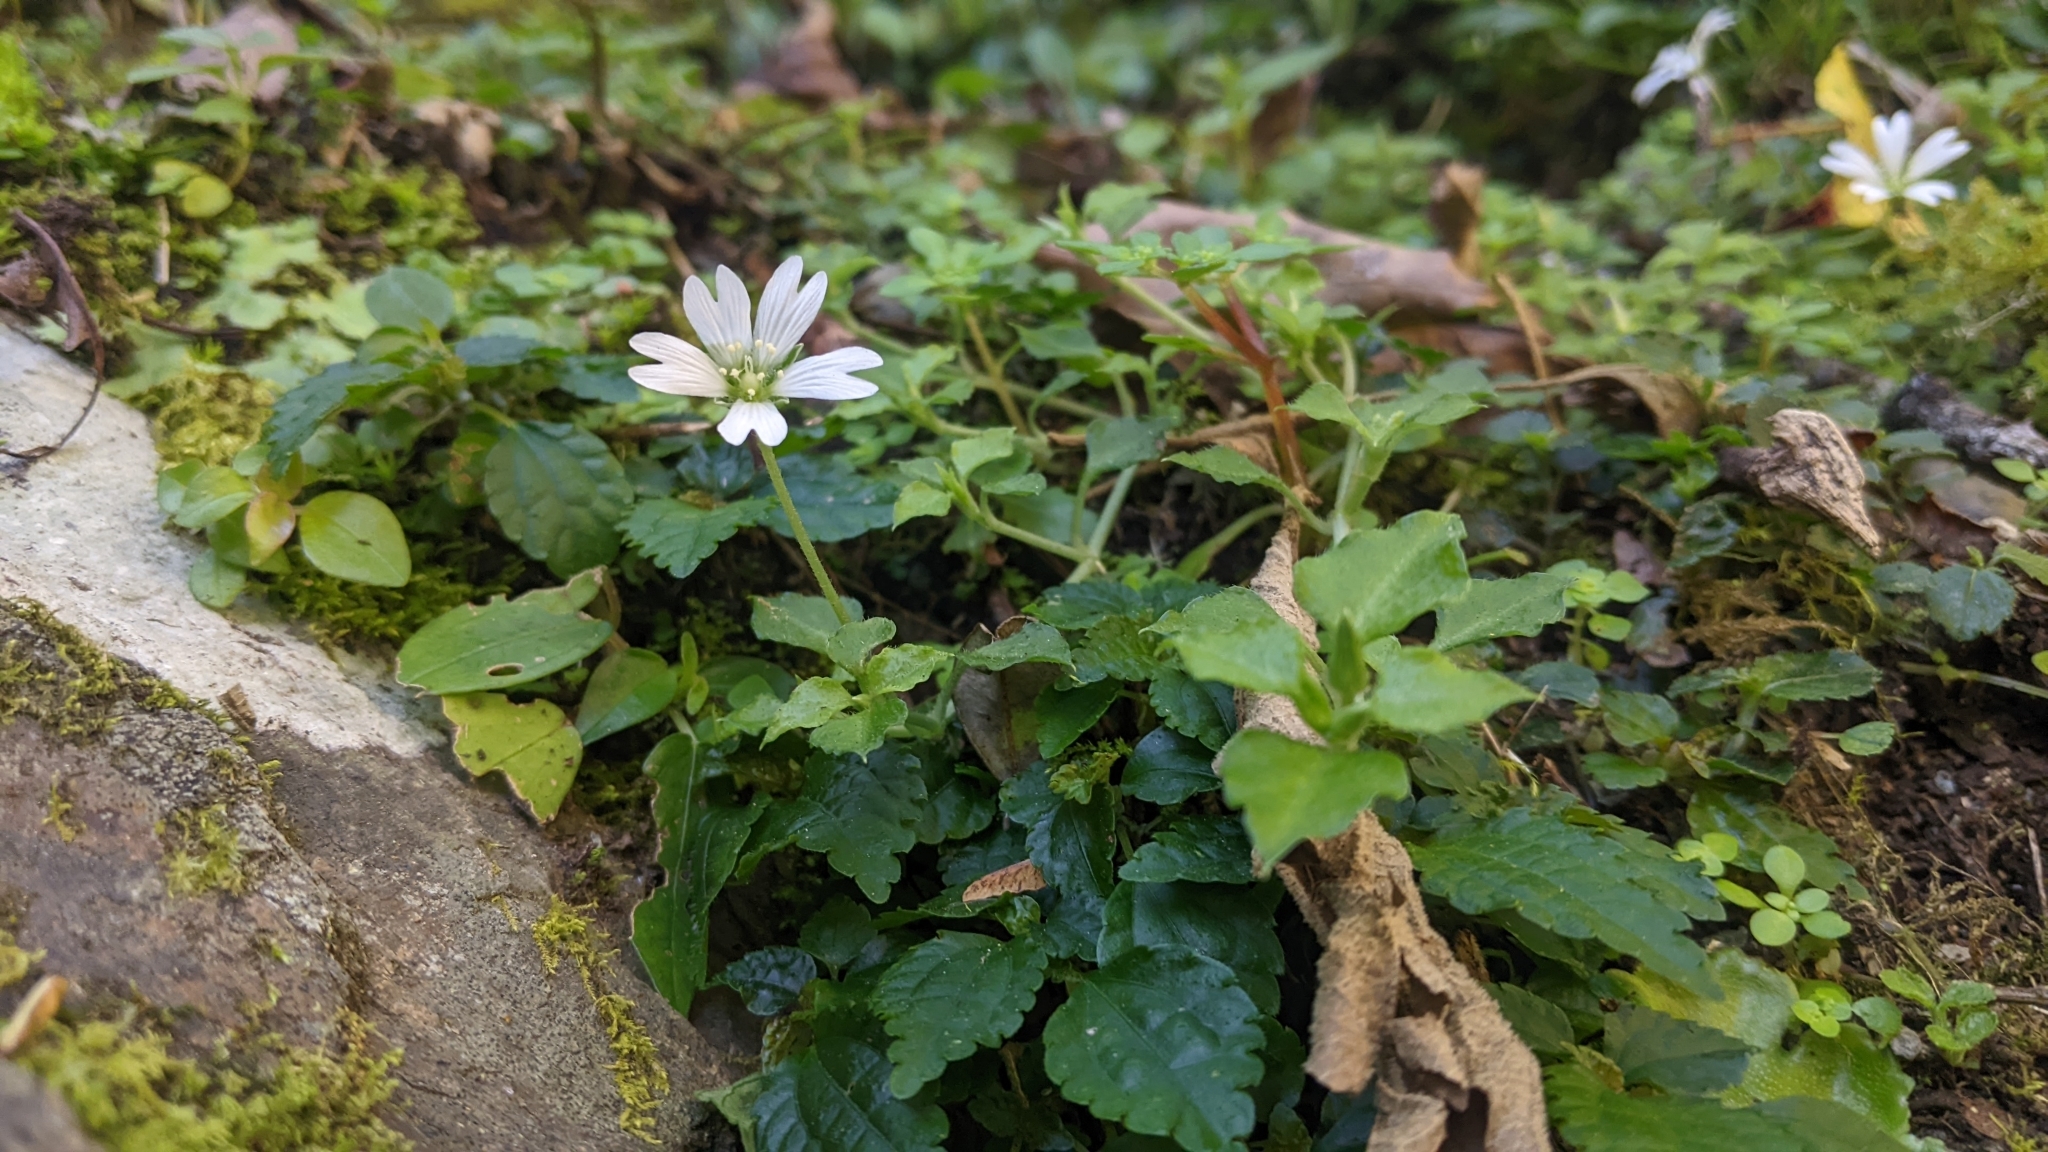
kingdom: Plantae
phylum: Tracheophyta
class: Magnoliopsida
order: Caryophyllales
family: Caryophyllaceae
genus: Nubelaria
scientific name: Nubelaria arisanensis
